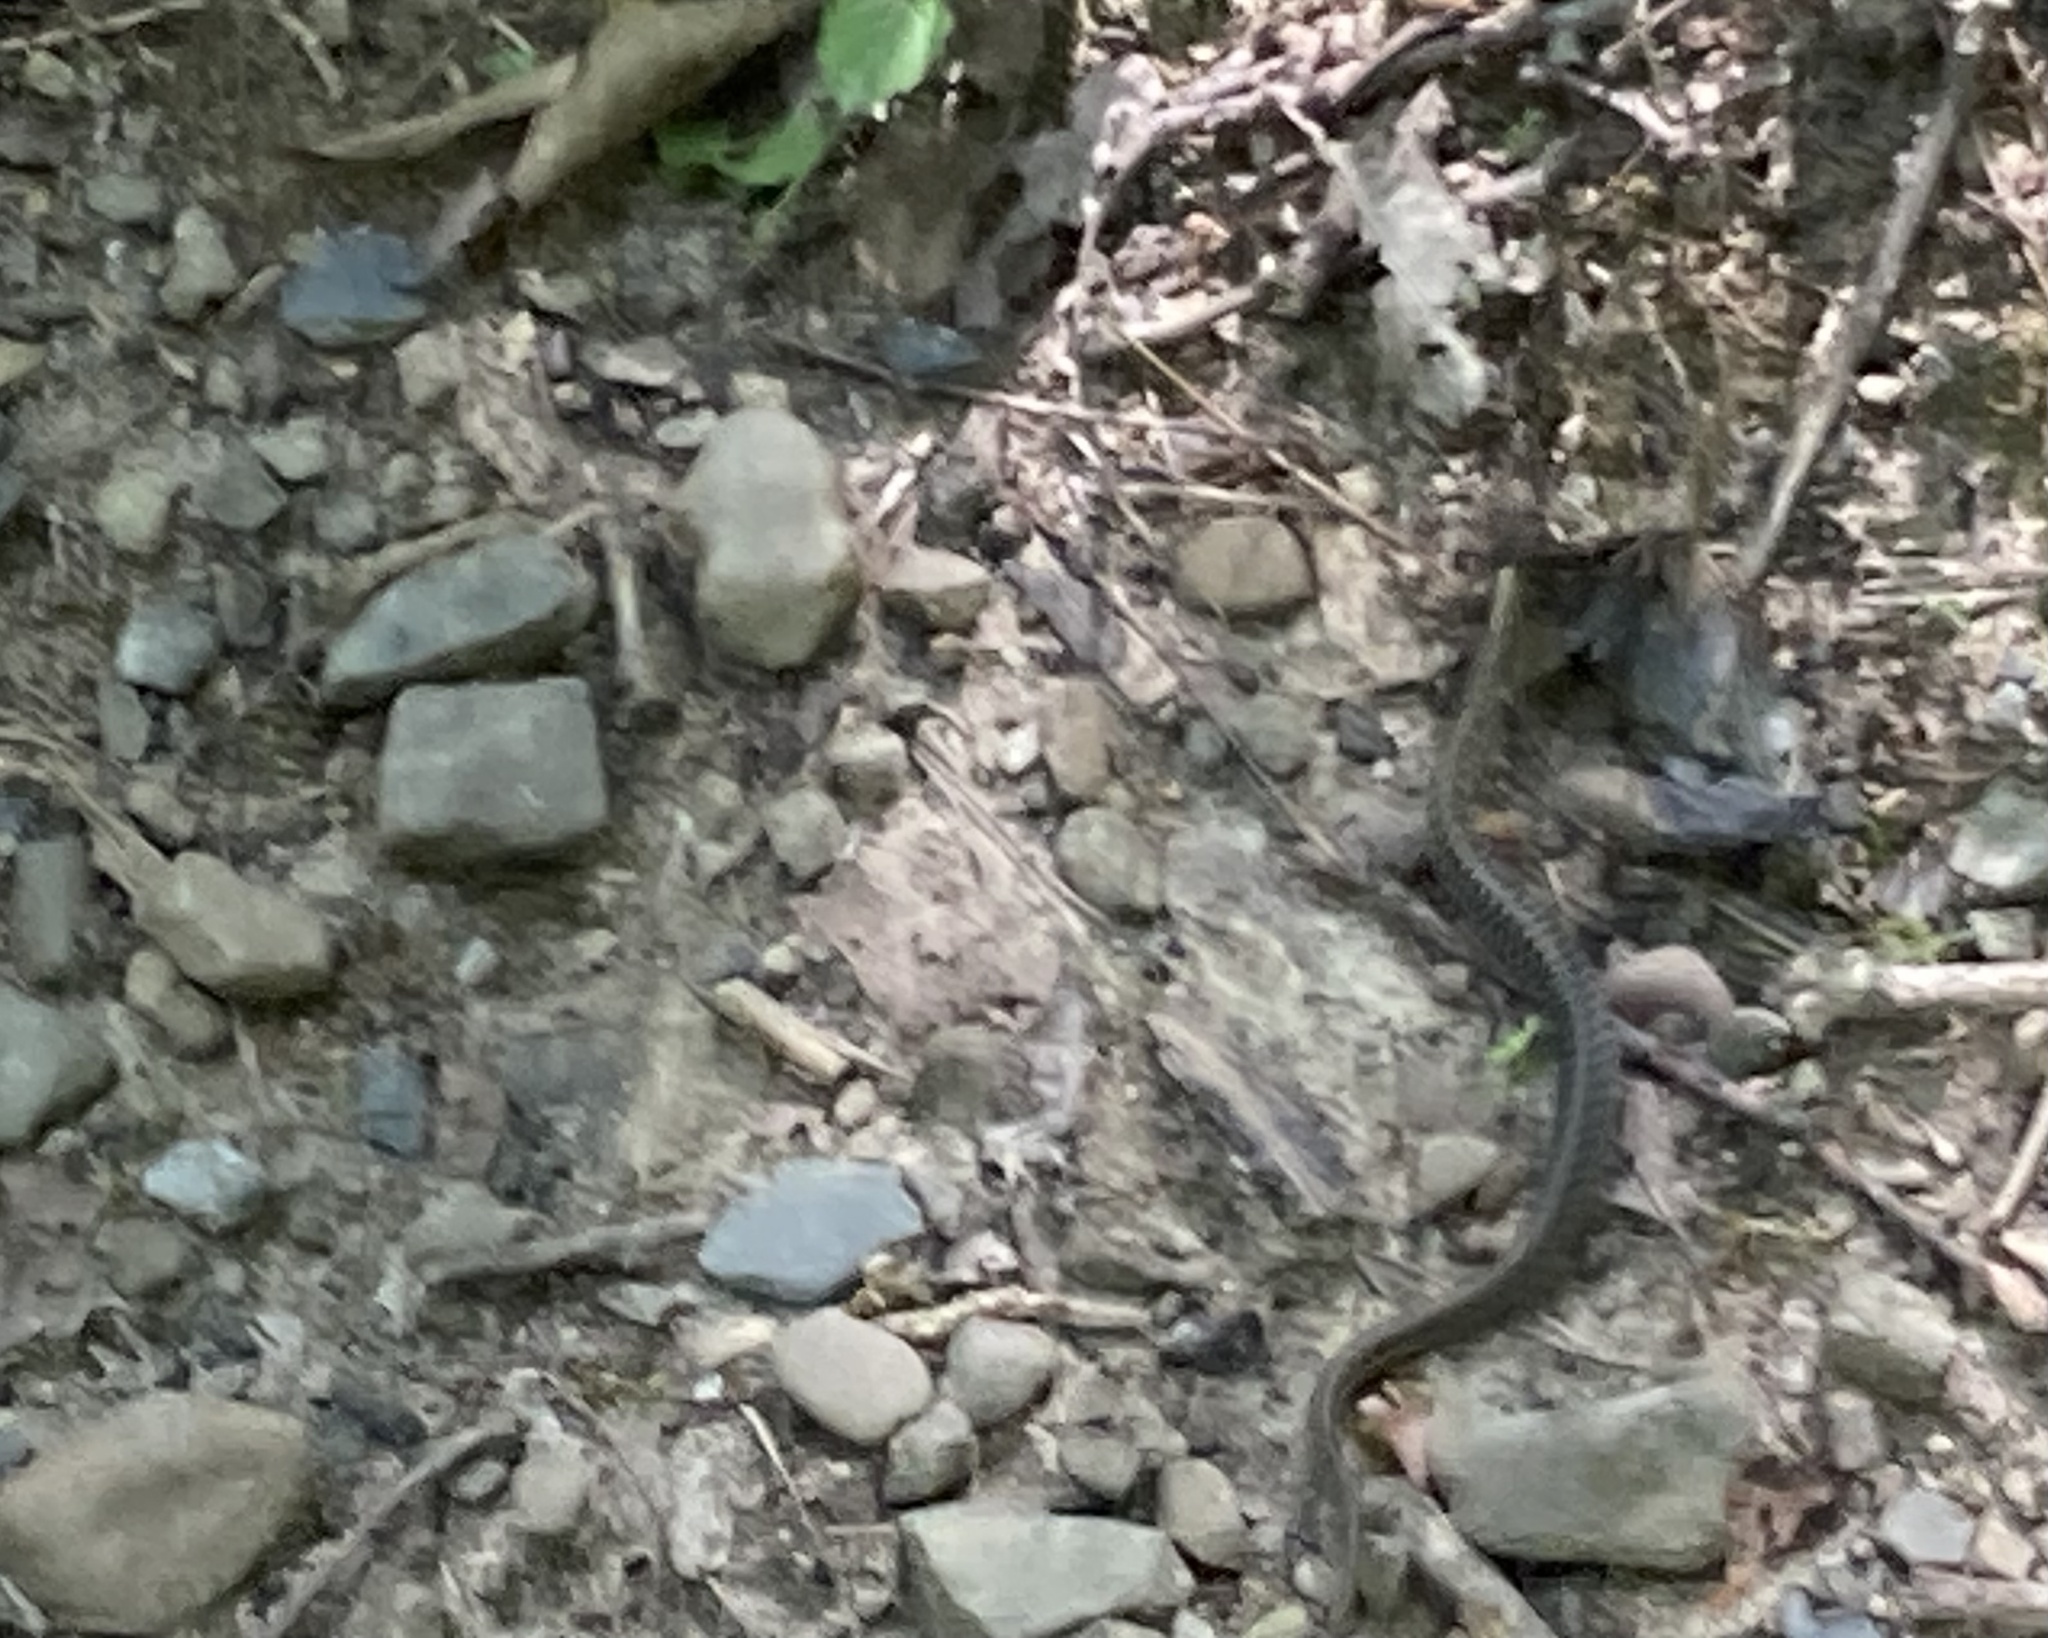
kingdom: Animalia
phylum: Chordata
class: Squamata
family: Colubridae
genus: Storeria
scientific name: Storeria dekayi
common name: (dekay’s) brown snake
